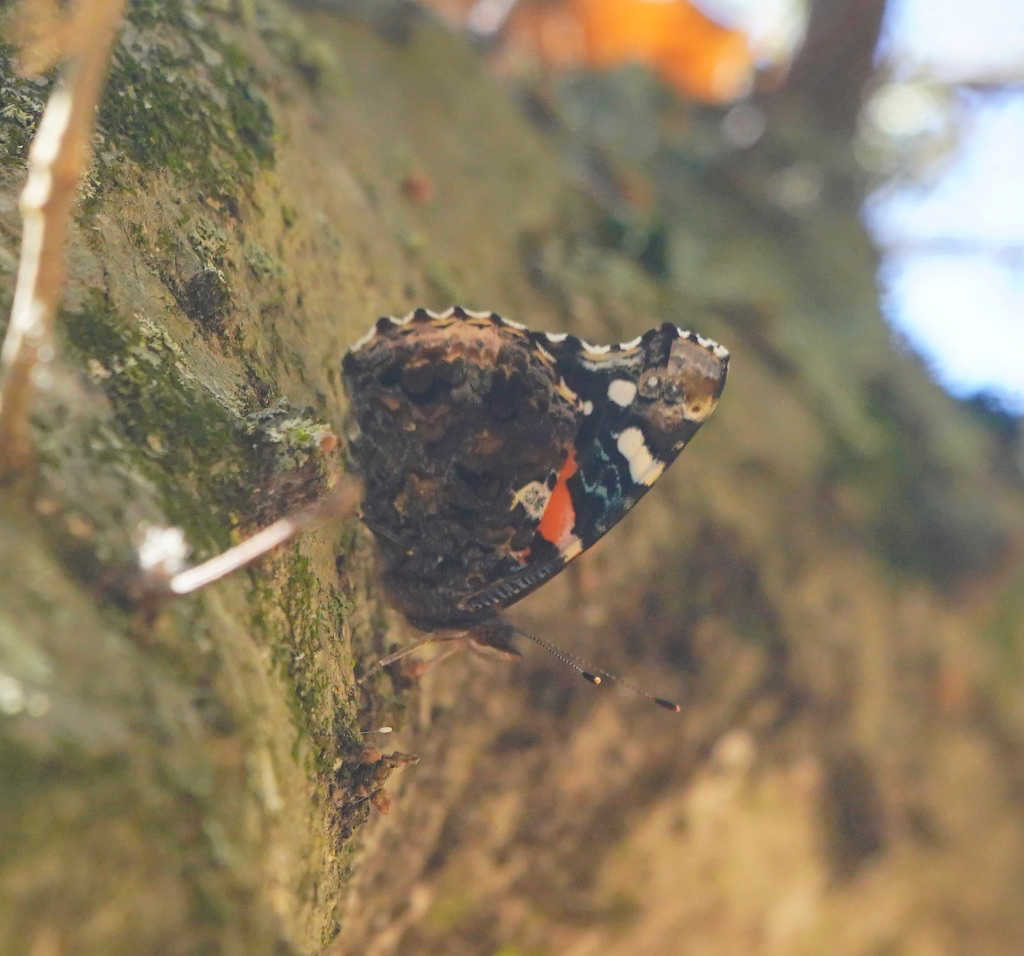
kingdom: Animalia
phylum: Arthropoda
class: Insecta
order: Lepidoptera
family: Nymphalidae
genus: Vanessa
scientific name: Vanessa atalanta
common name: Red admiral
